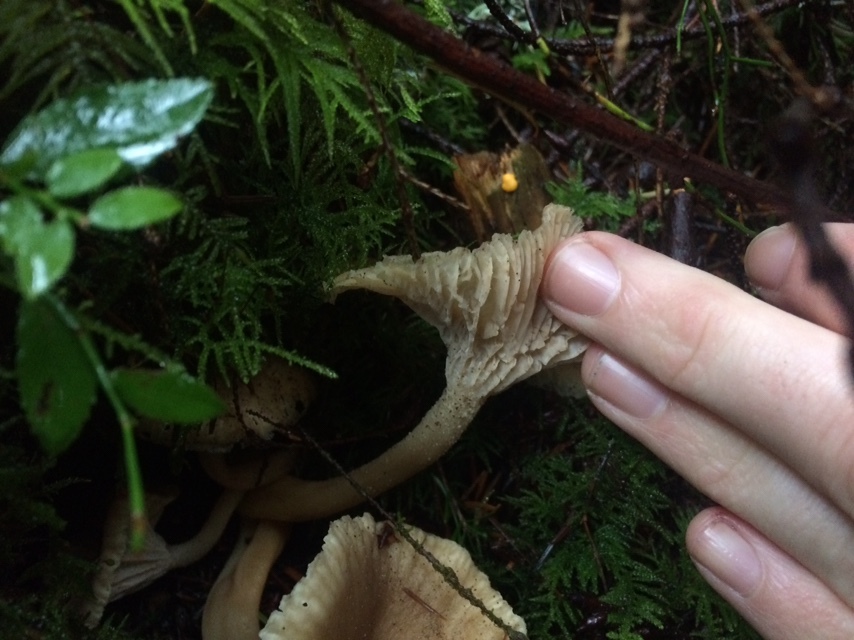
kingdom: Fungi
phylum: Basidiomycota
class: Agaricomycetes
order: Cantharellales
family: Hydnaceae
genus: Craterellus
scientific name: Craterellus tubaeformis
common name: Yellowfoot
